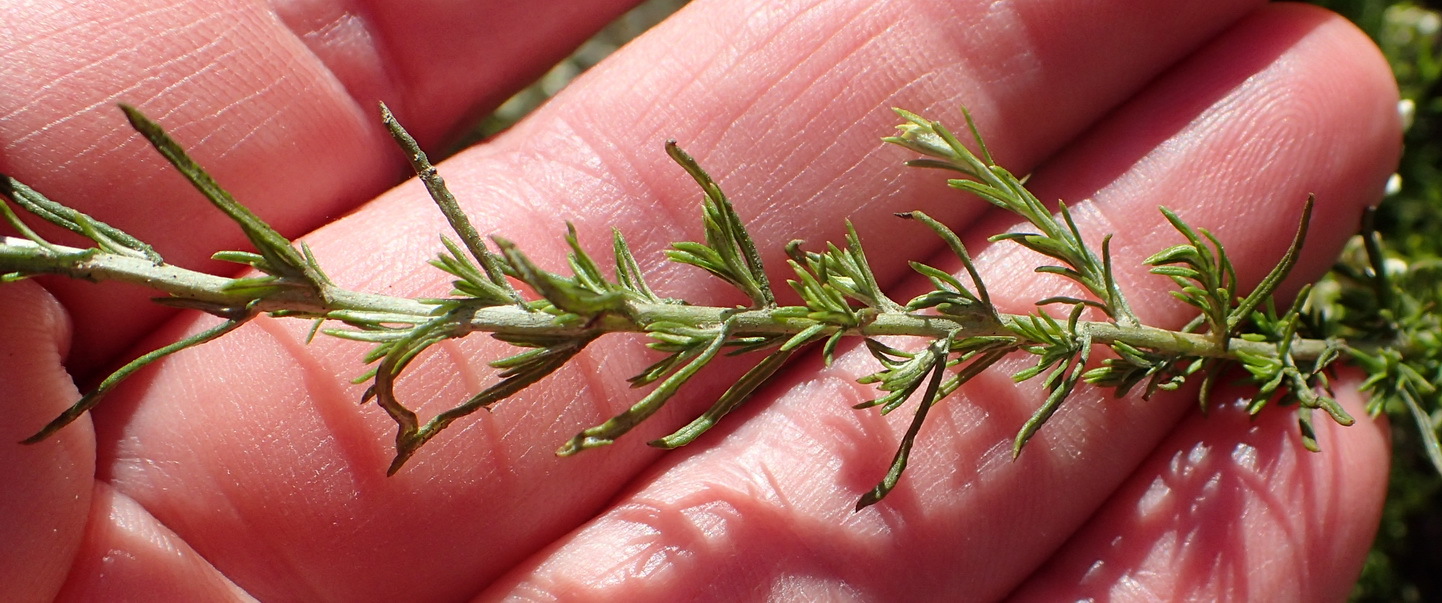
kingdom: Plantae
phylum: Tracheophyta
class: Magnoliopsida
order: Asterales
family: Asteraceae
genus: Helichrysum
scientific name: Helichrysum teretifolium
